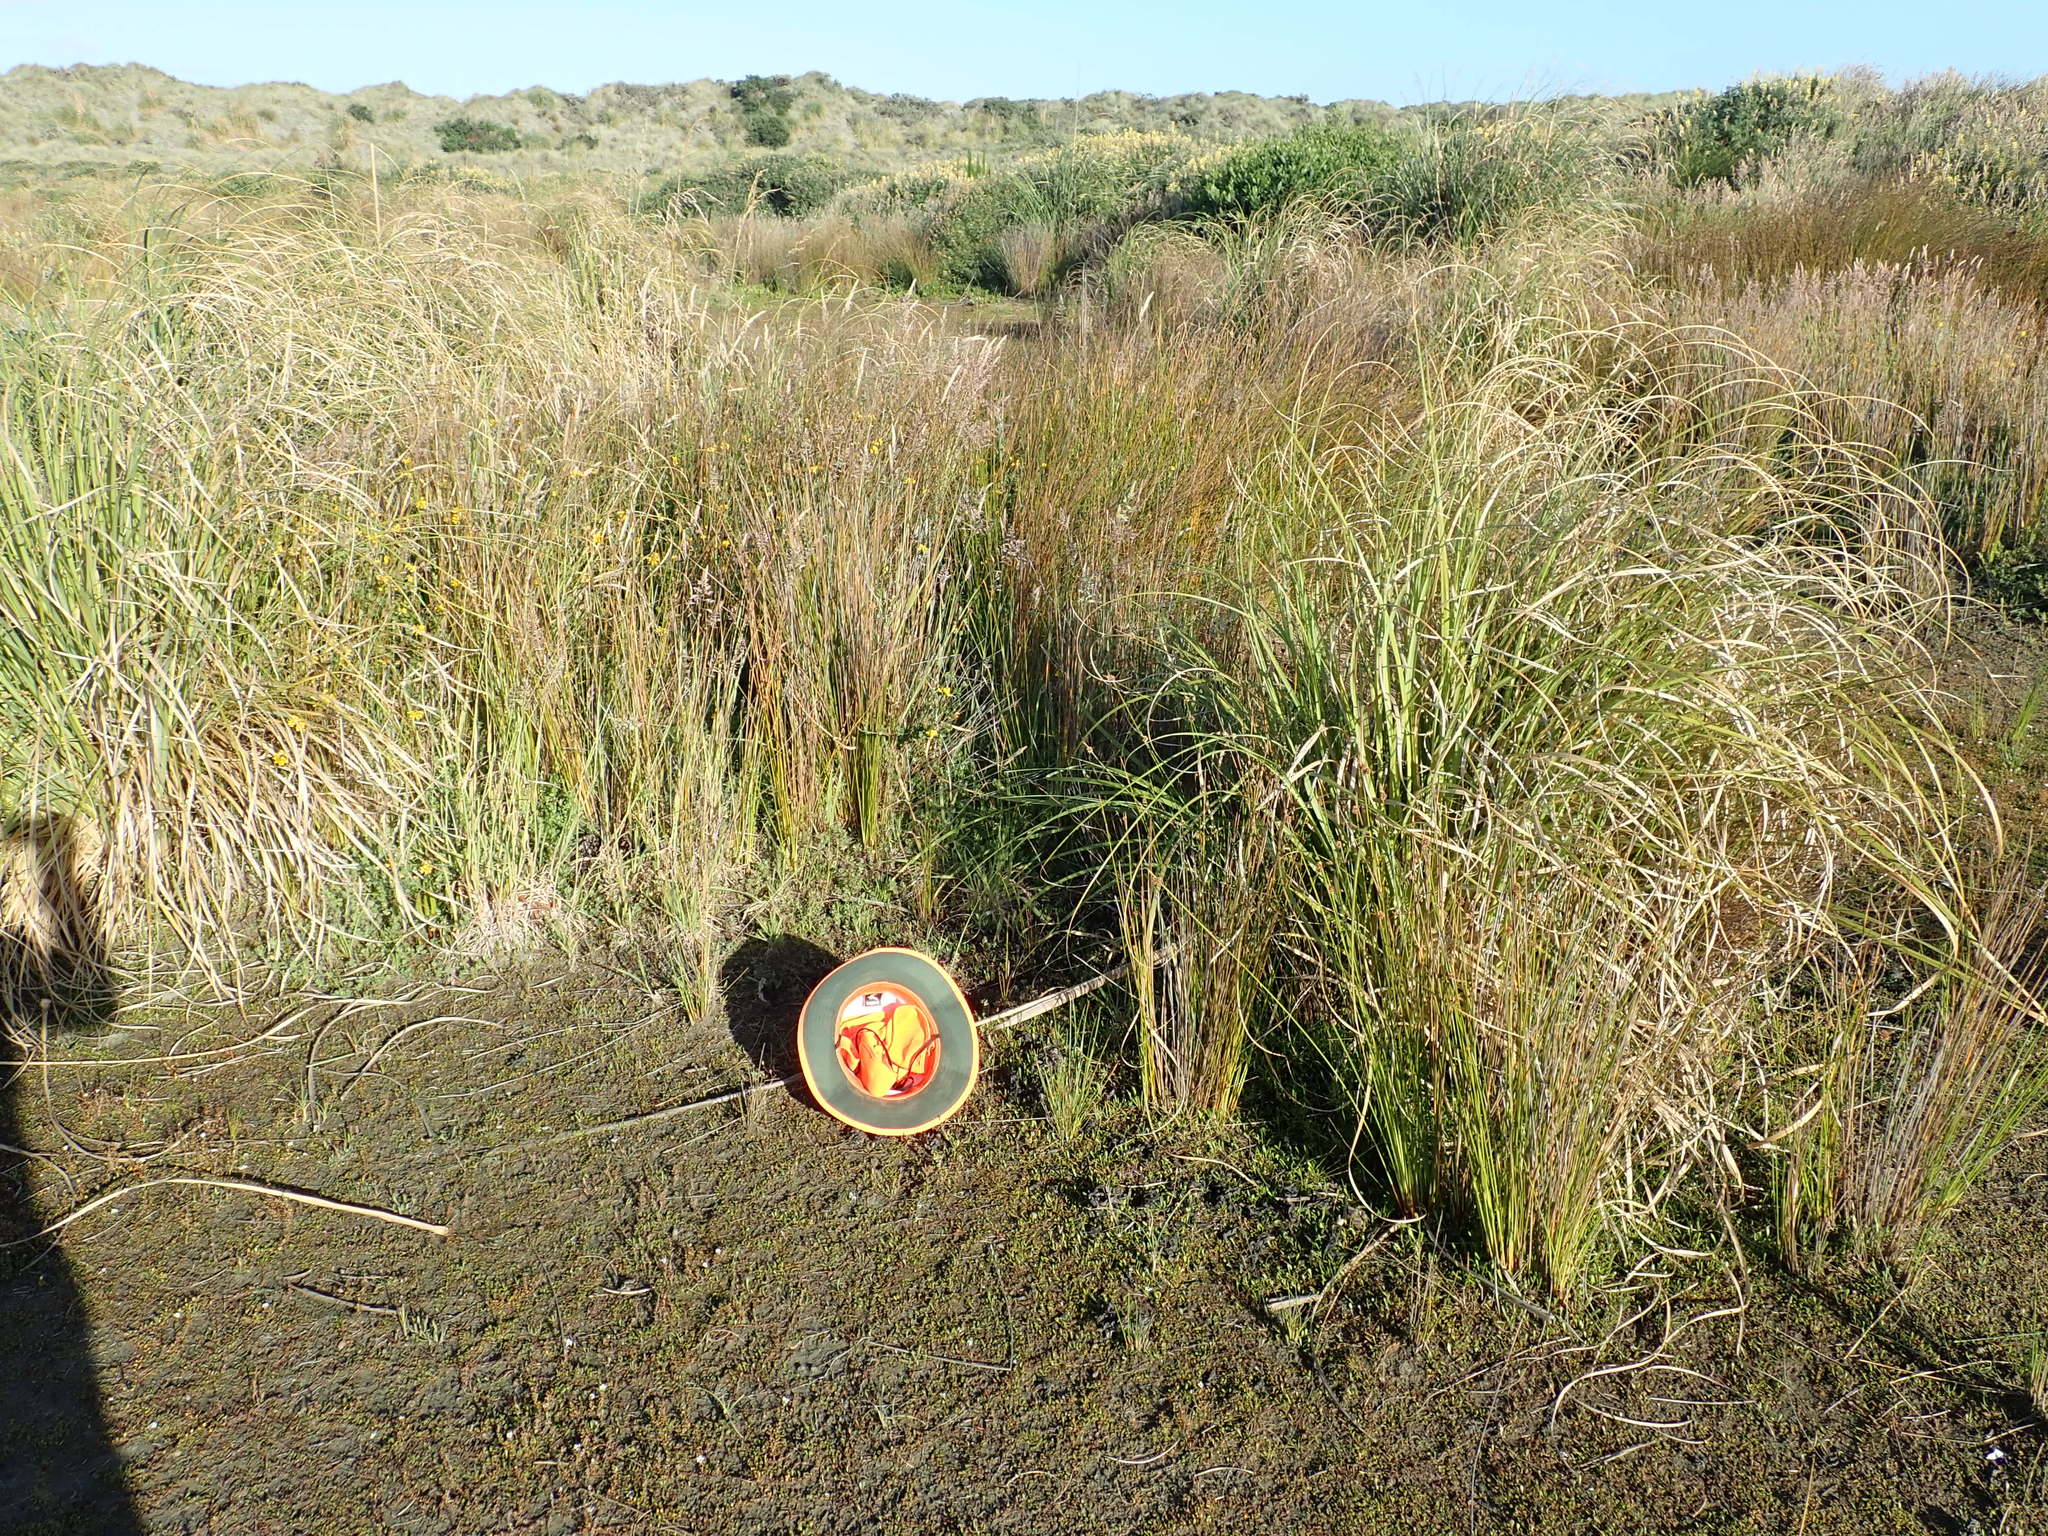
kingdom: Plantae
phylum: Tracheophyta
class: Magnoliopsida
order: Lamiales
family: Plantaginaceae
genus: Plantago
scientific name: Plantago coronopus
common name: Buck's-horn plantain
